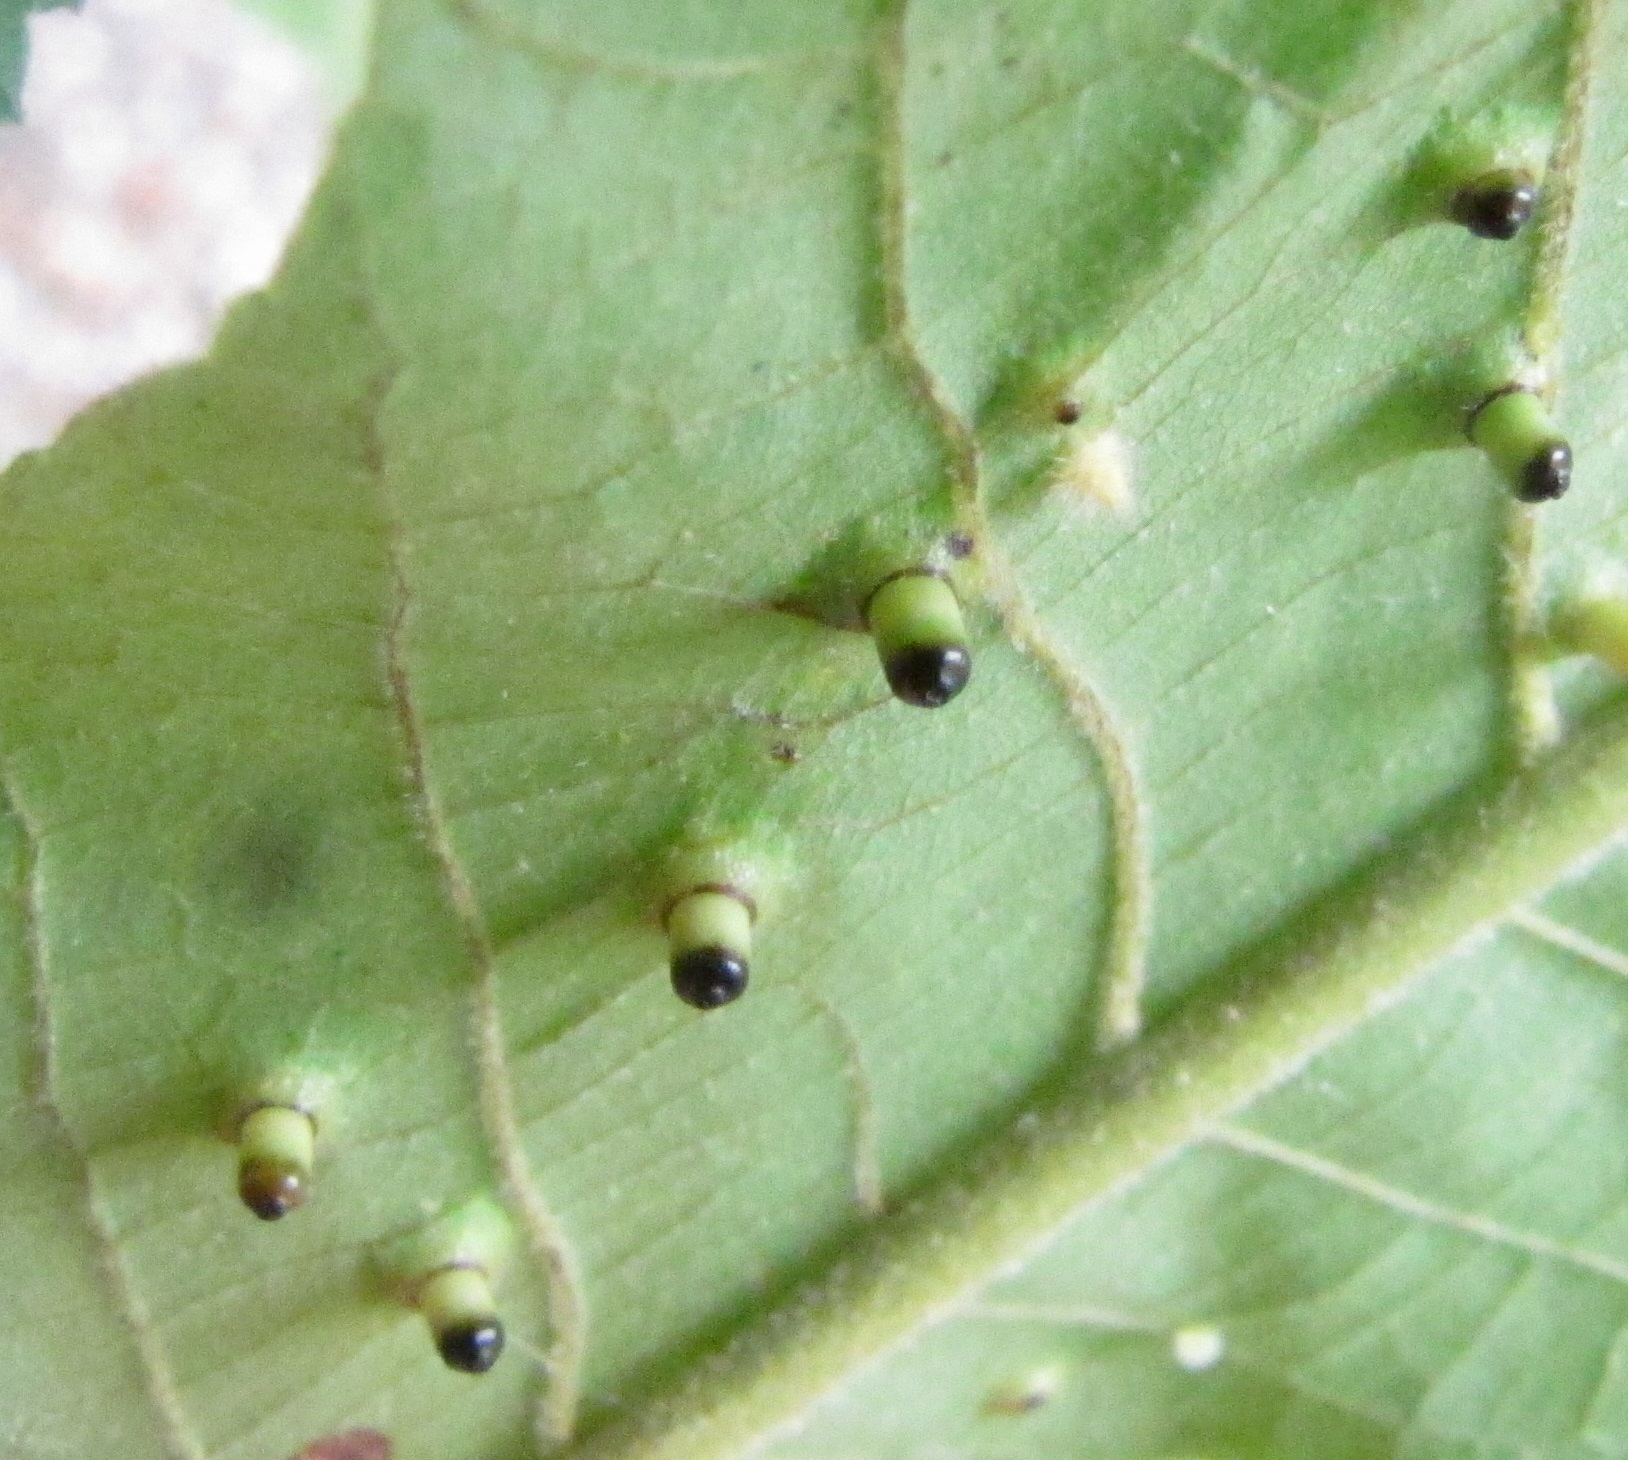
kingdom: Animalia
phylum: Arthropoda
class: Insecta
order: Diptera
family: Cecidomyiidae
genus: Caryomyia
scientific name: Caryomyia tubicola
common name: Hickory bullet gall midge
